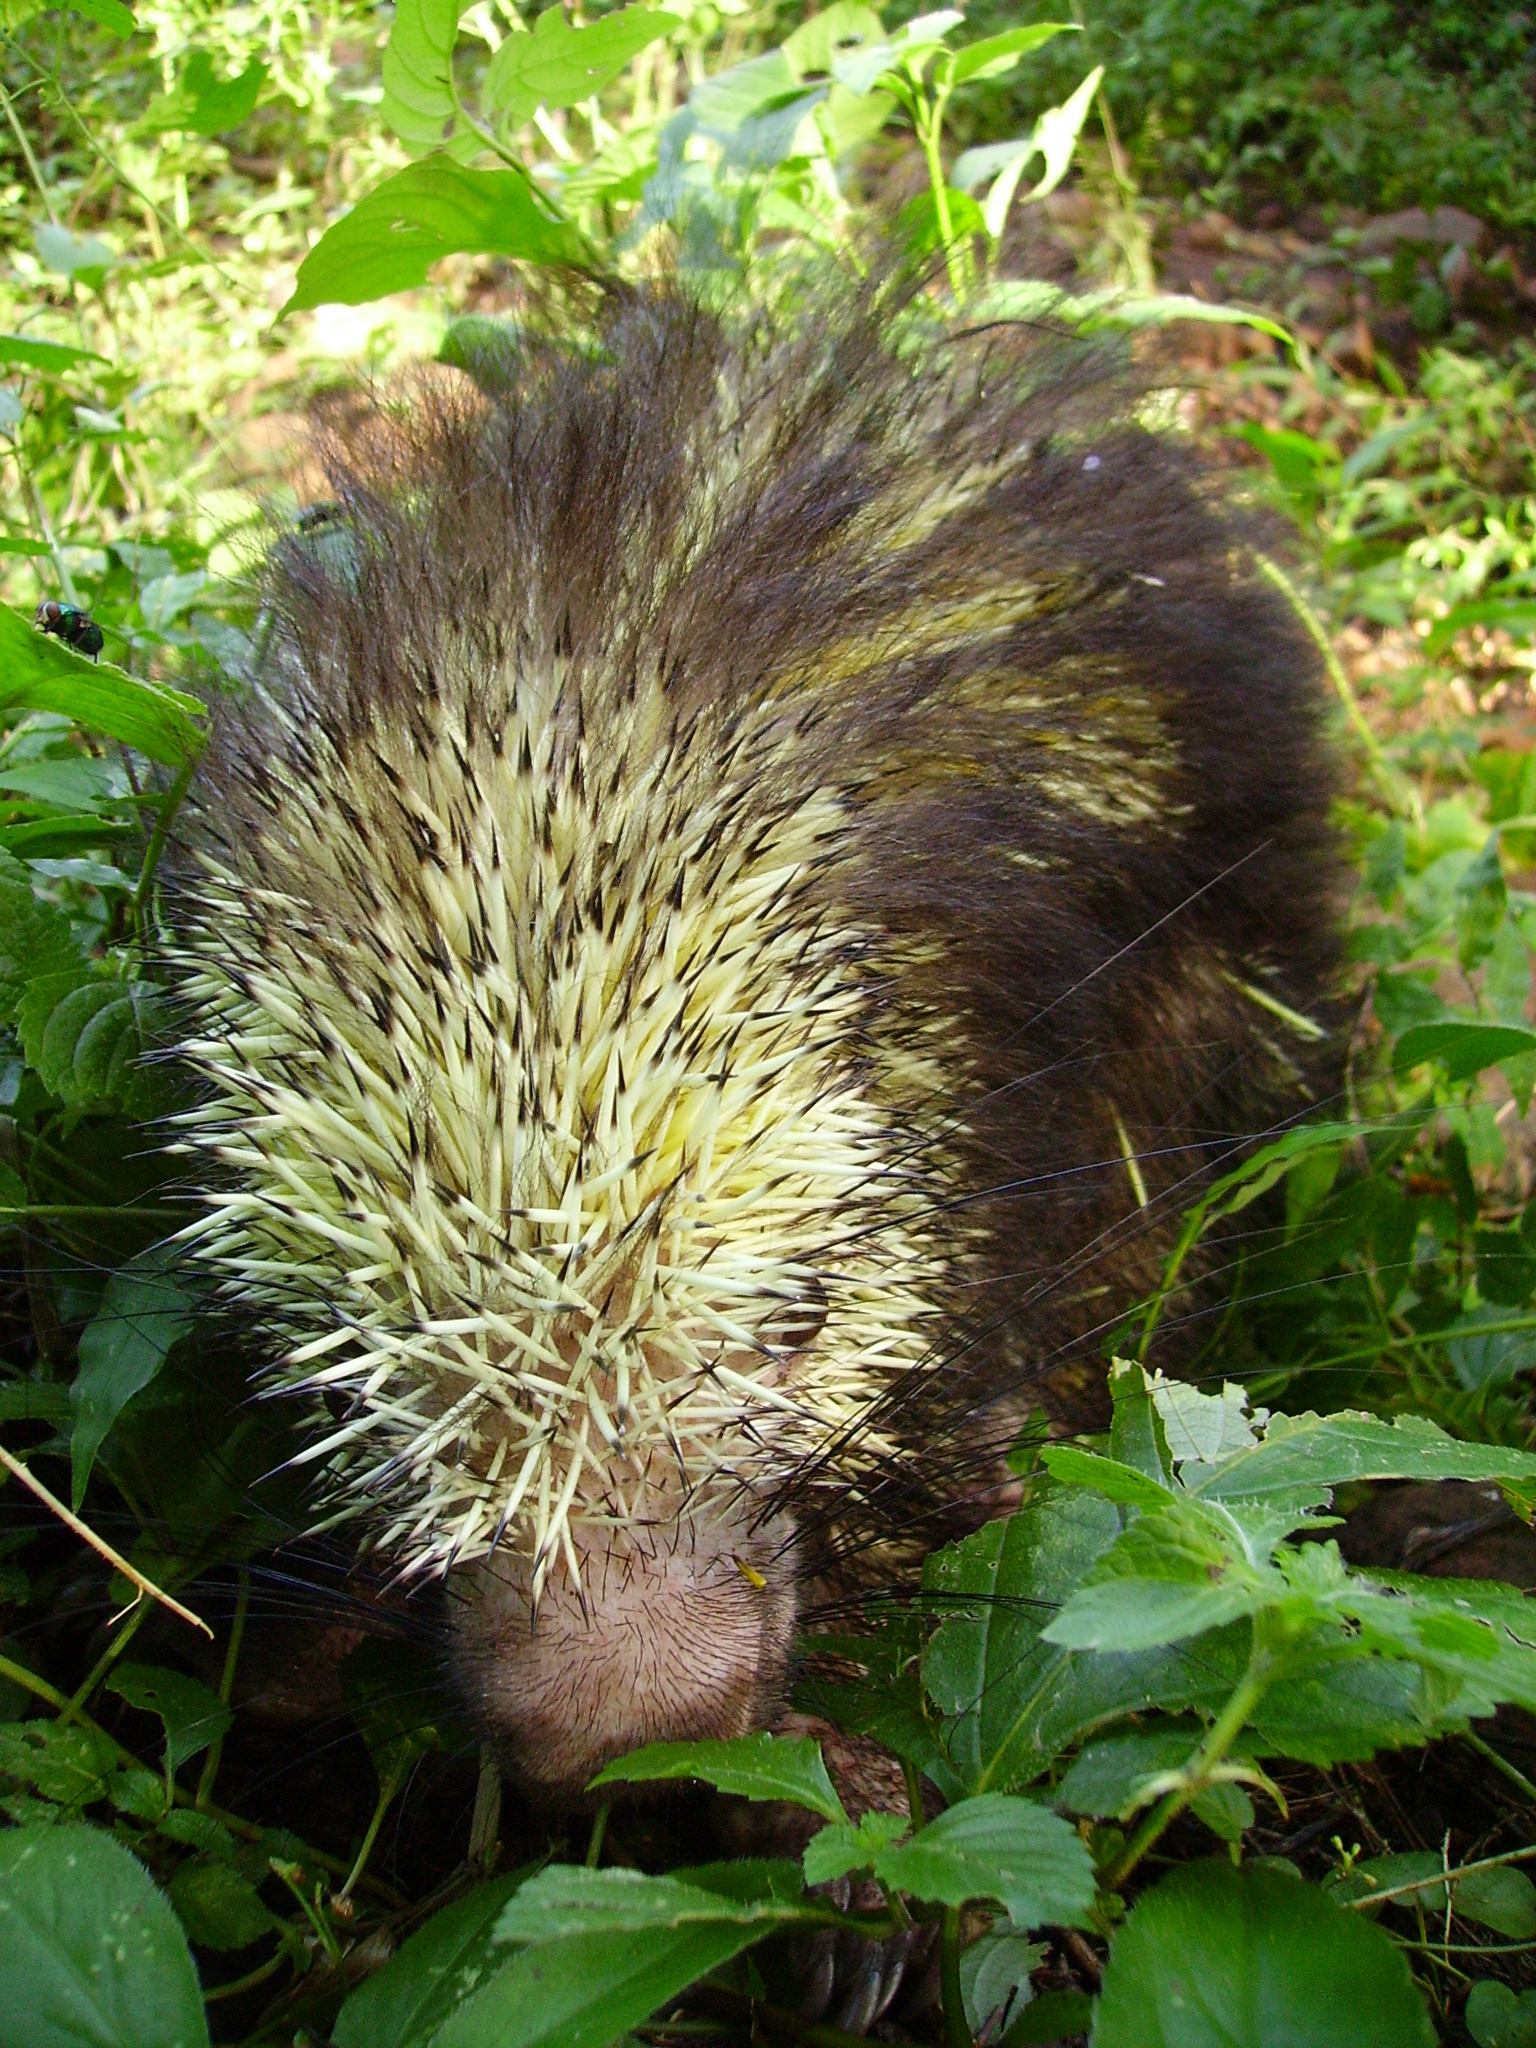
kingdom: Animalia
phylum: Chordata
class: Mammalia
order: Rodentia
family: Erethizontidae
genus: Sphiggurus
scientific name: Sphiggurus mexicanus
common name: Mexican hairy dwarf porcupine
